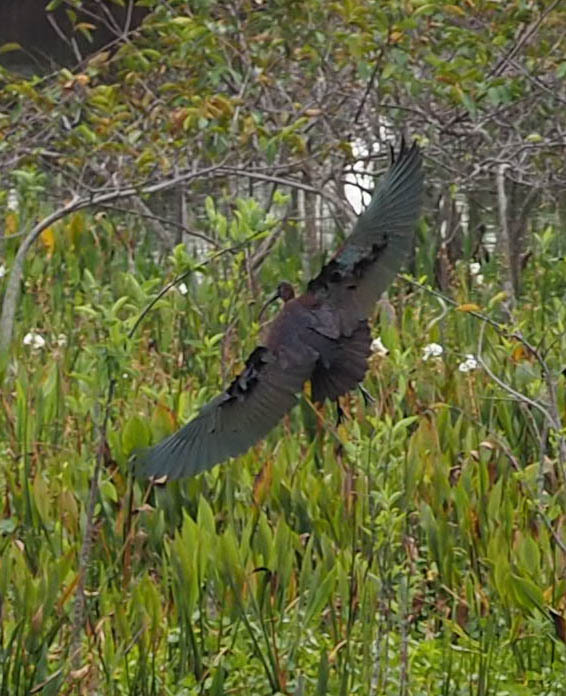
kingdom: Animalia
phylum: Chordata
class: Aves
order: Pelecaniformes
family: Threskiornithidae
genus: Plegadis
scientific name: Plegadis falcinellus
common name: Glossy ibis
